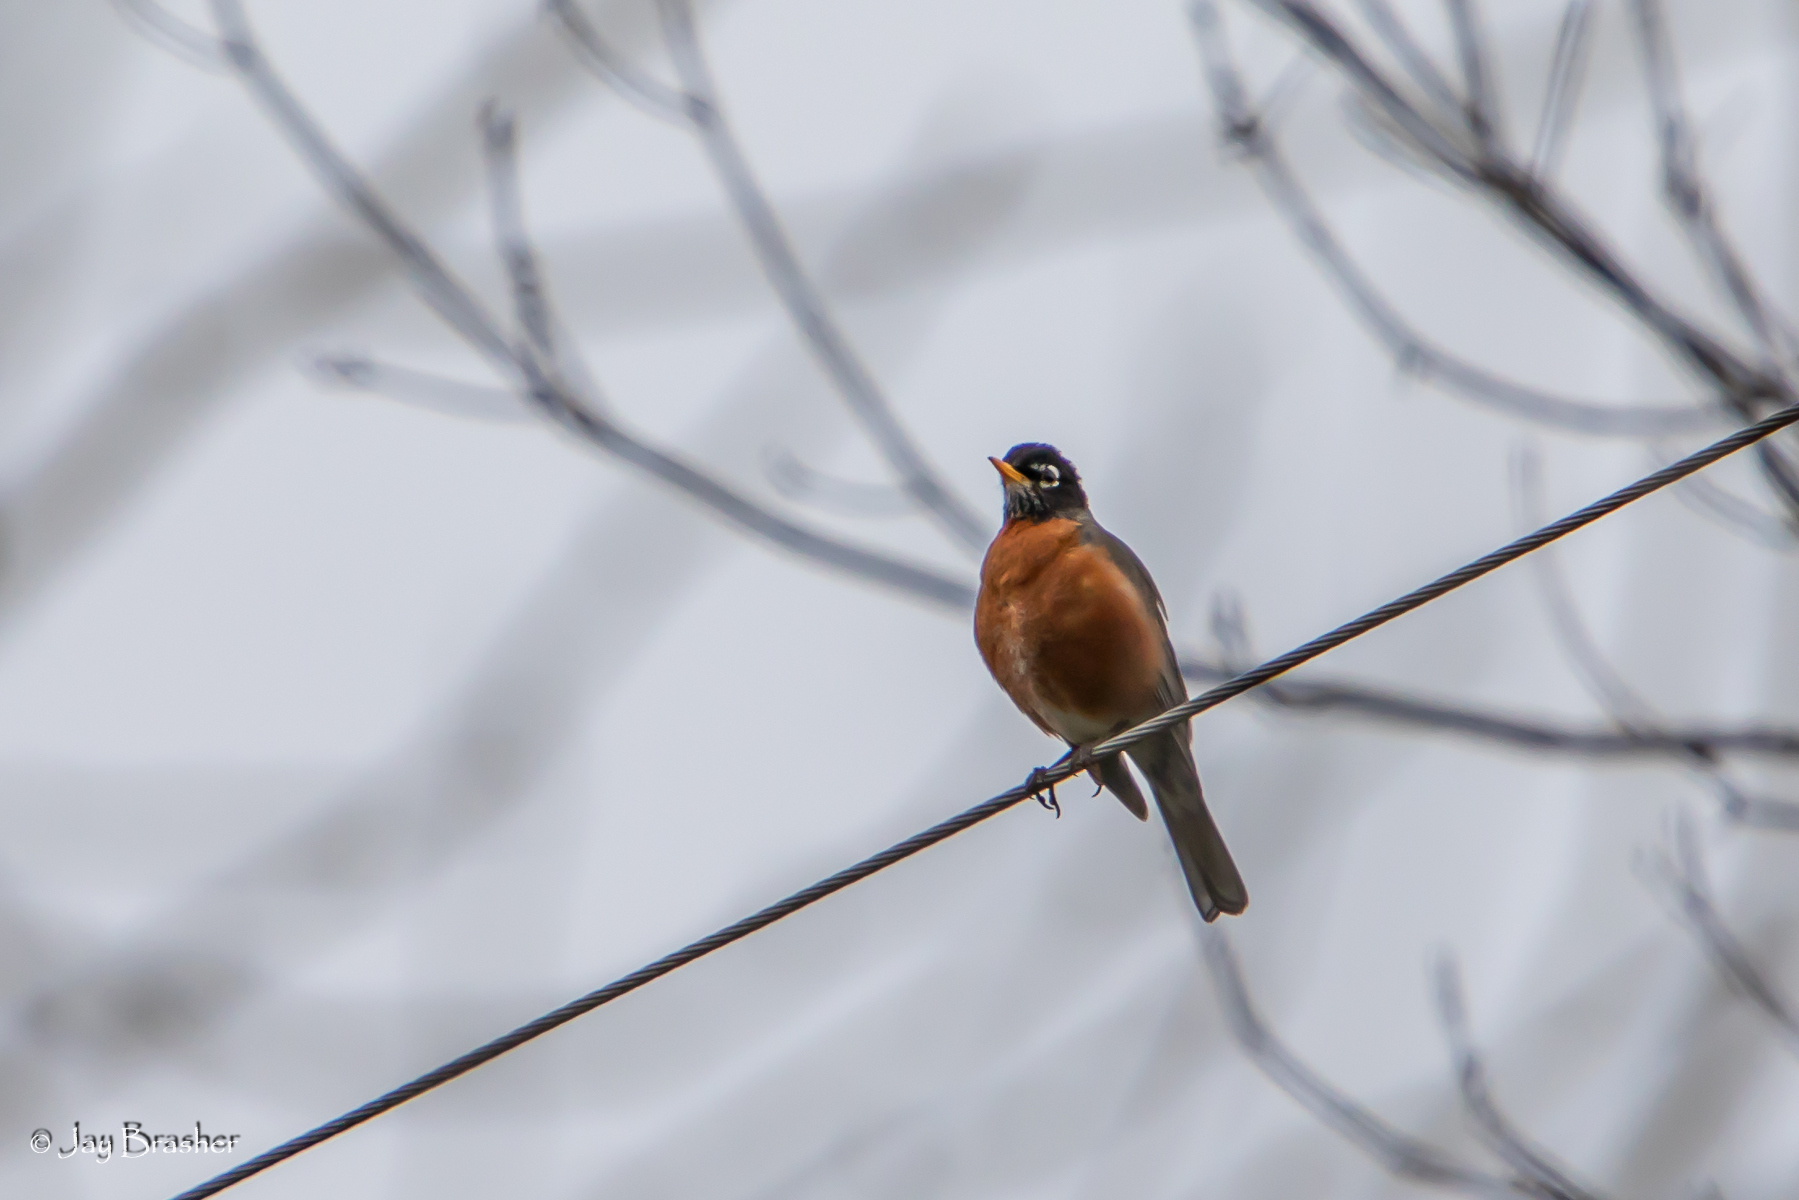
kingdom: Animalia
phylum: Chordata
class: Aves
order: Passeriformes
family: Turdidae
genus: Turdus
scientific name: Turdus migratorius
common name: American robin
